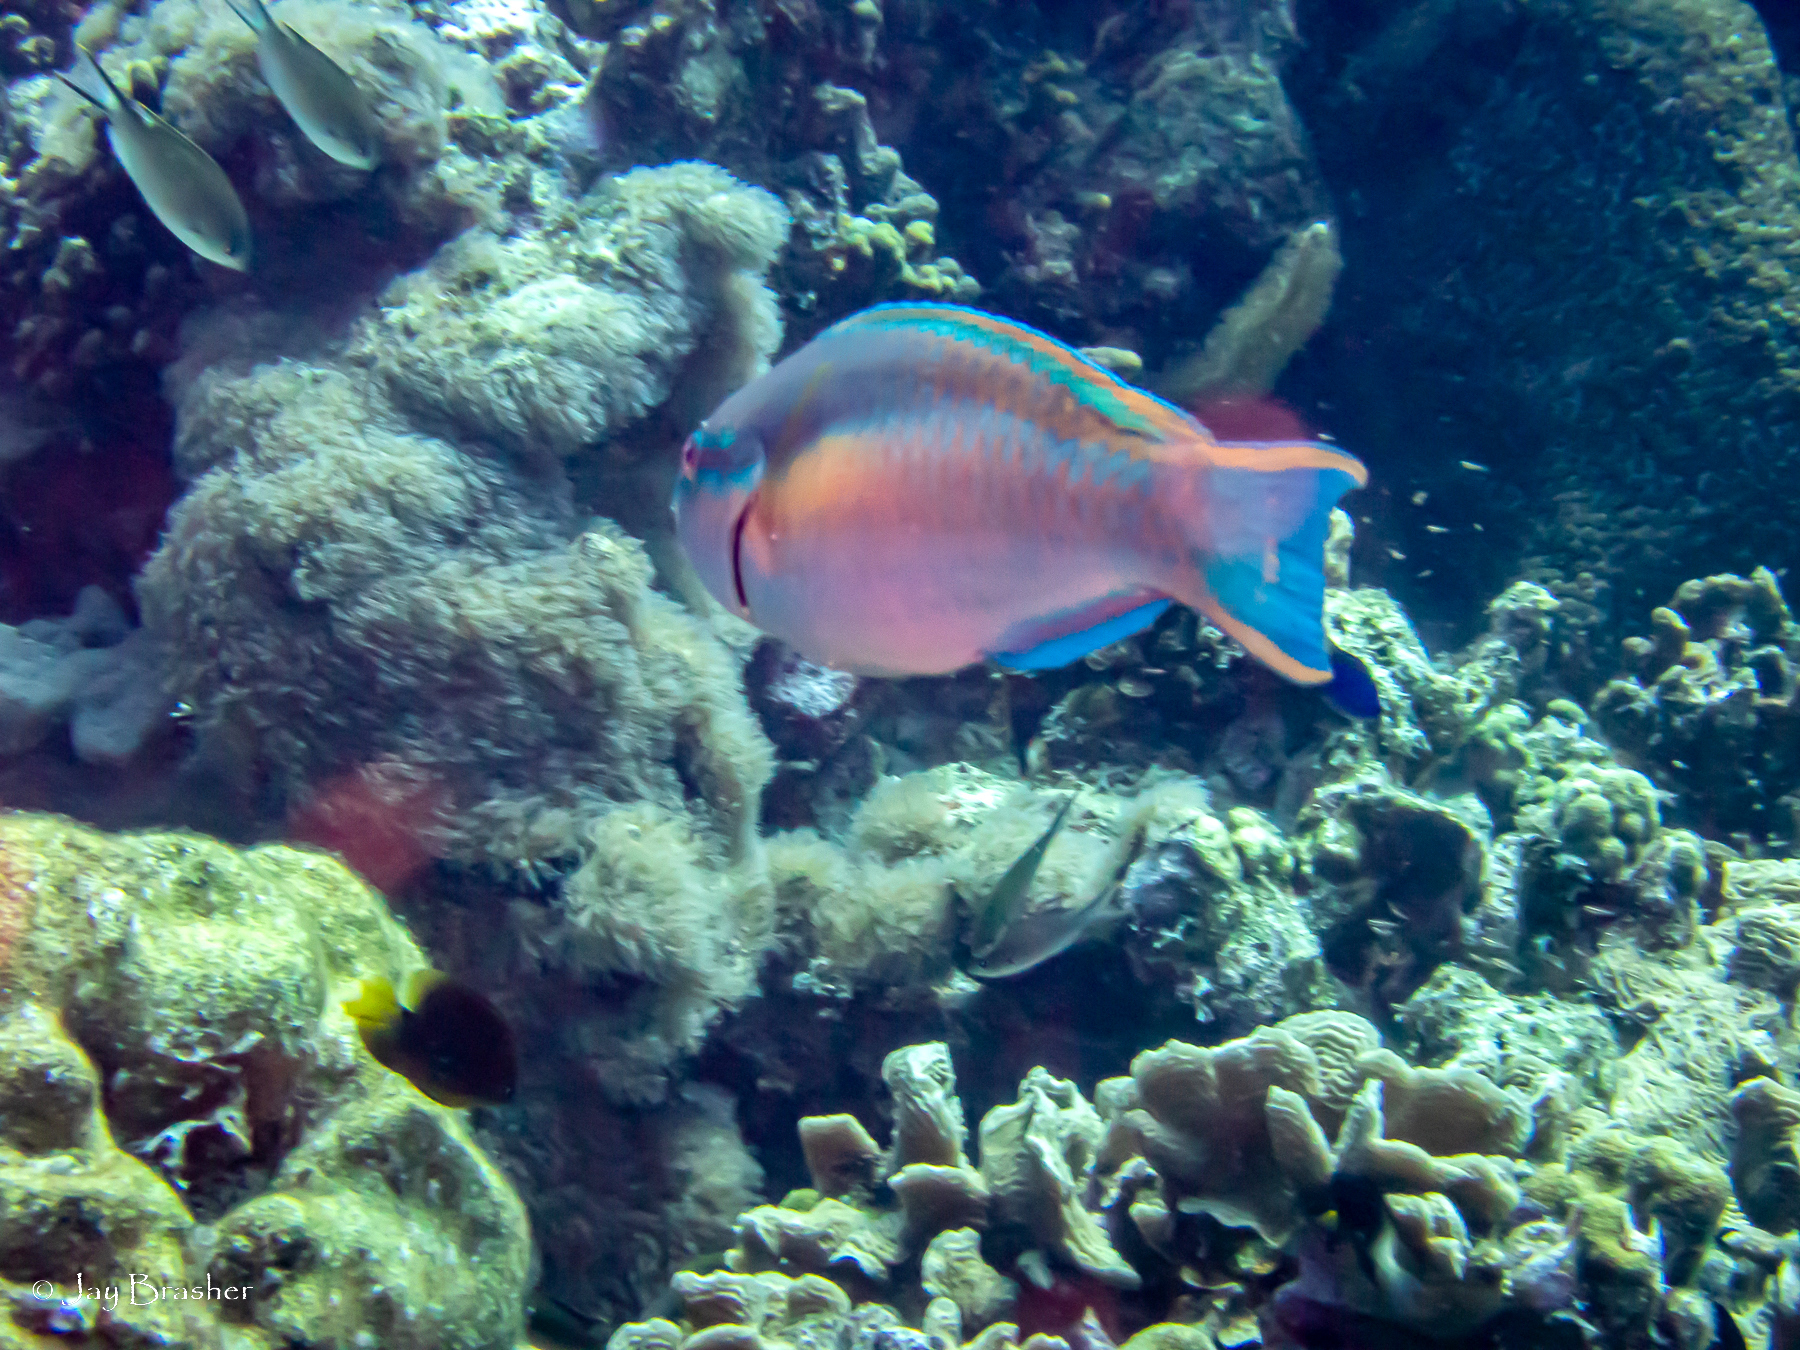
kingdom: Animalia
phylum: Chordata
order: Perciformes
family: Scaridae
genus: Scarus
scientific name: Scarus taeniopterus
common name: Princess parrotfish
